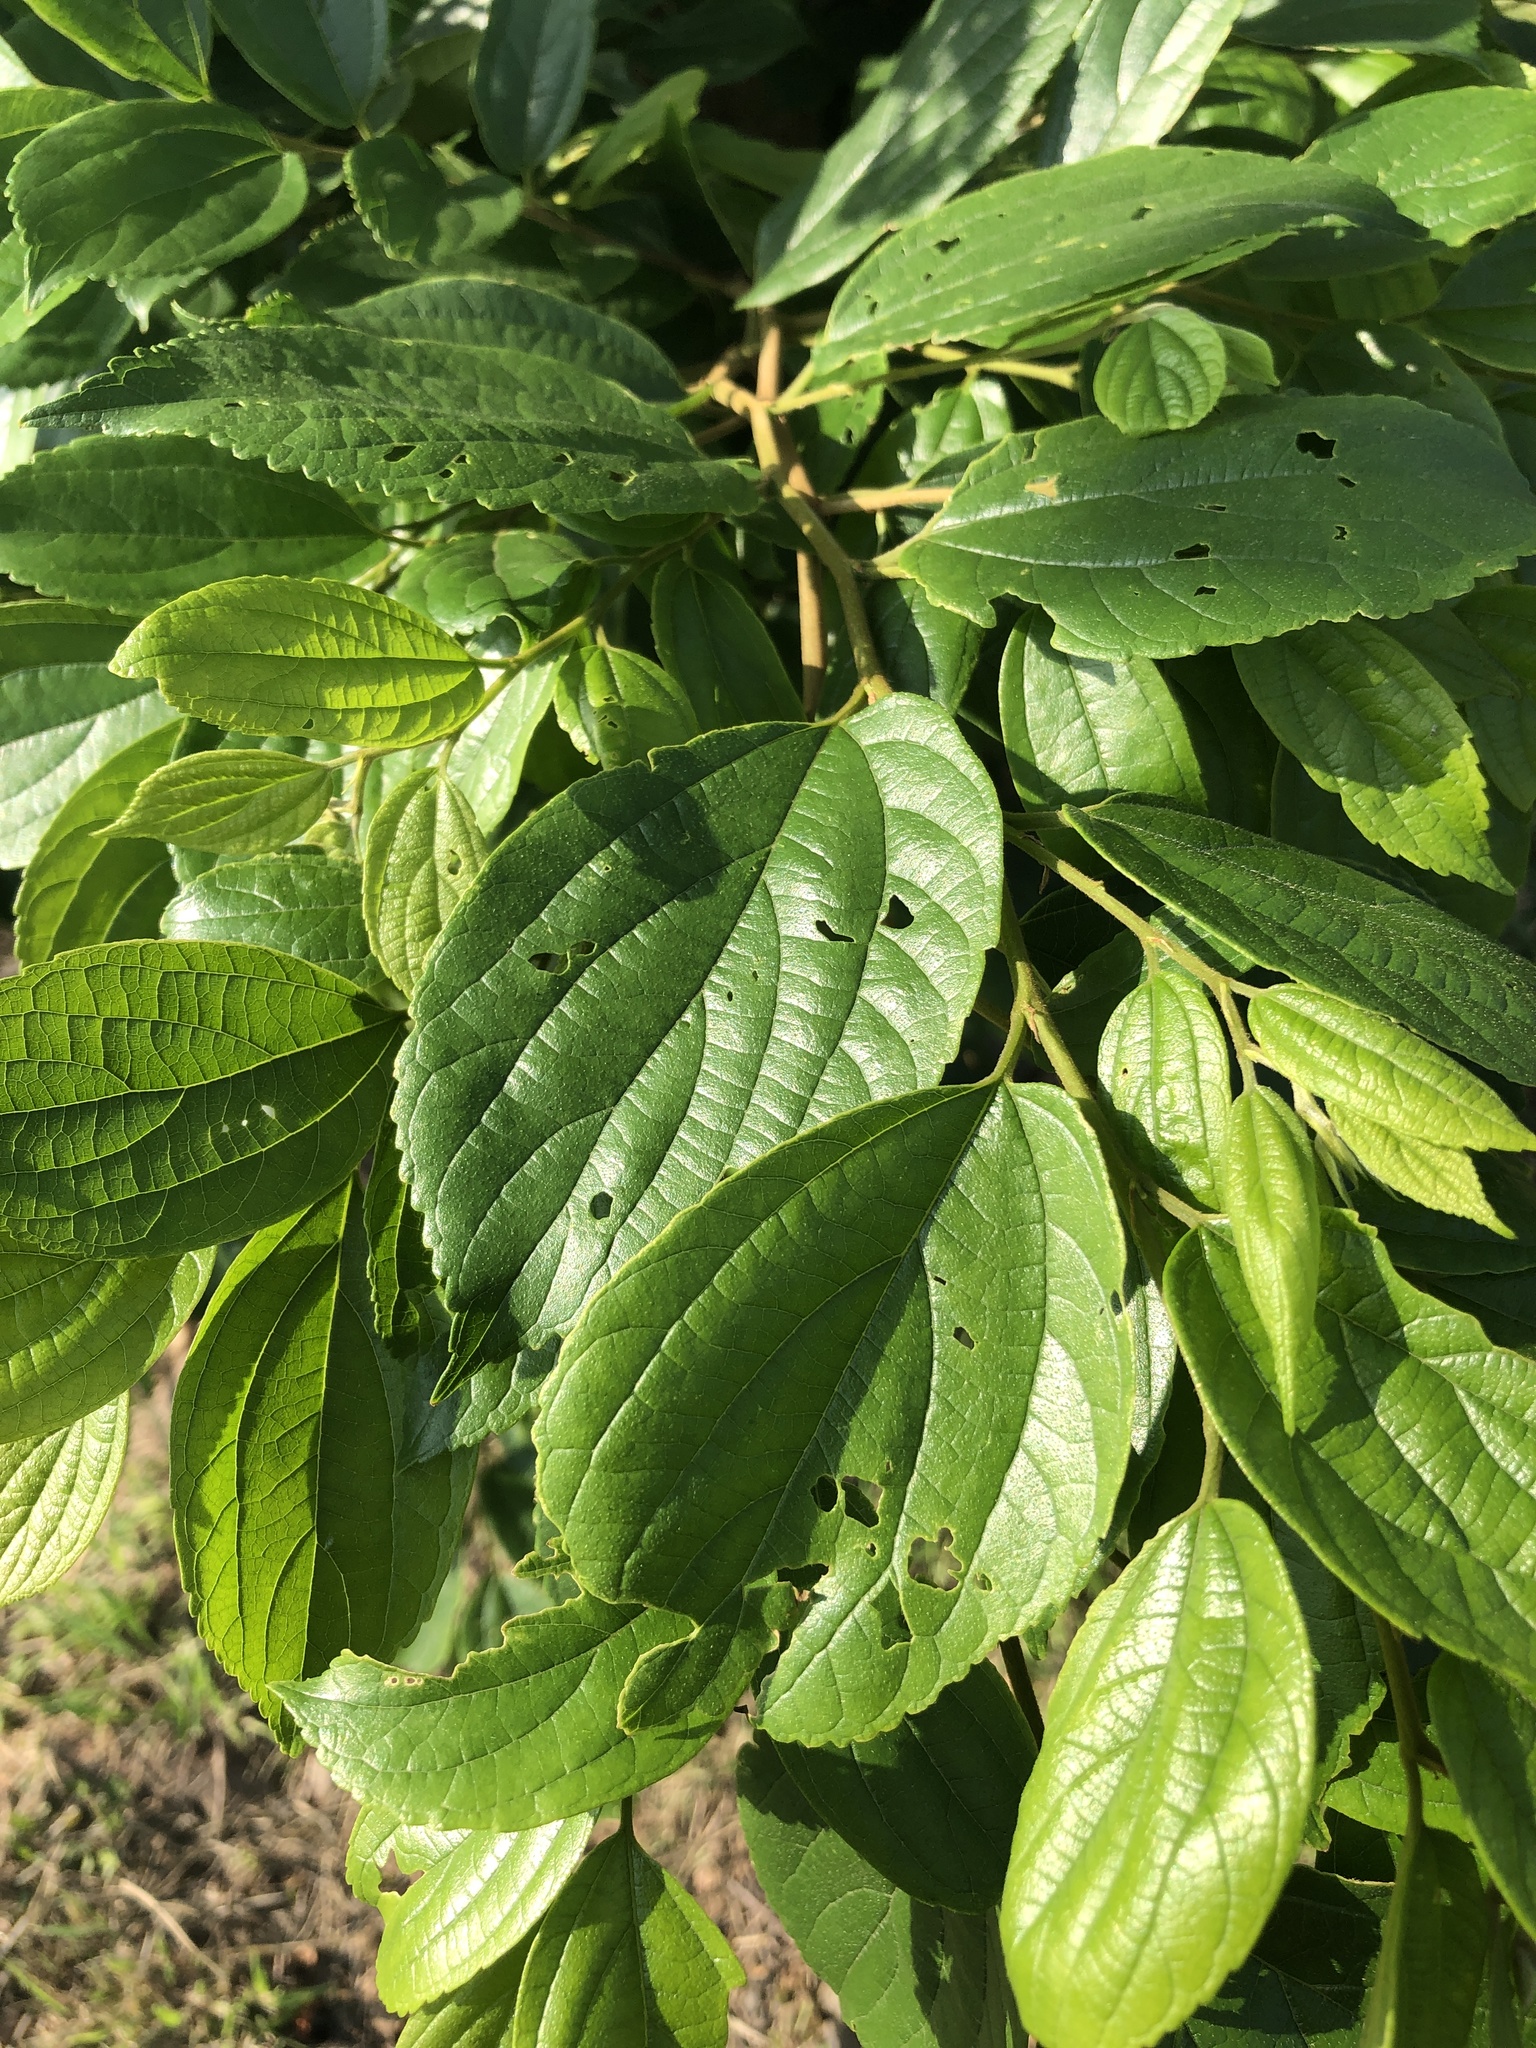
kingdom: Plantae
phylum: Tracheophyta
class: Magnoliopsida
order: Rosales
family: Cannabaceae
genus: Celtis
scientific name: Celtis sinensis
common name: Chinese hackberry
